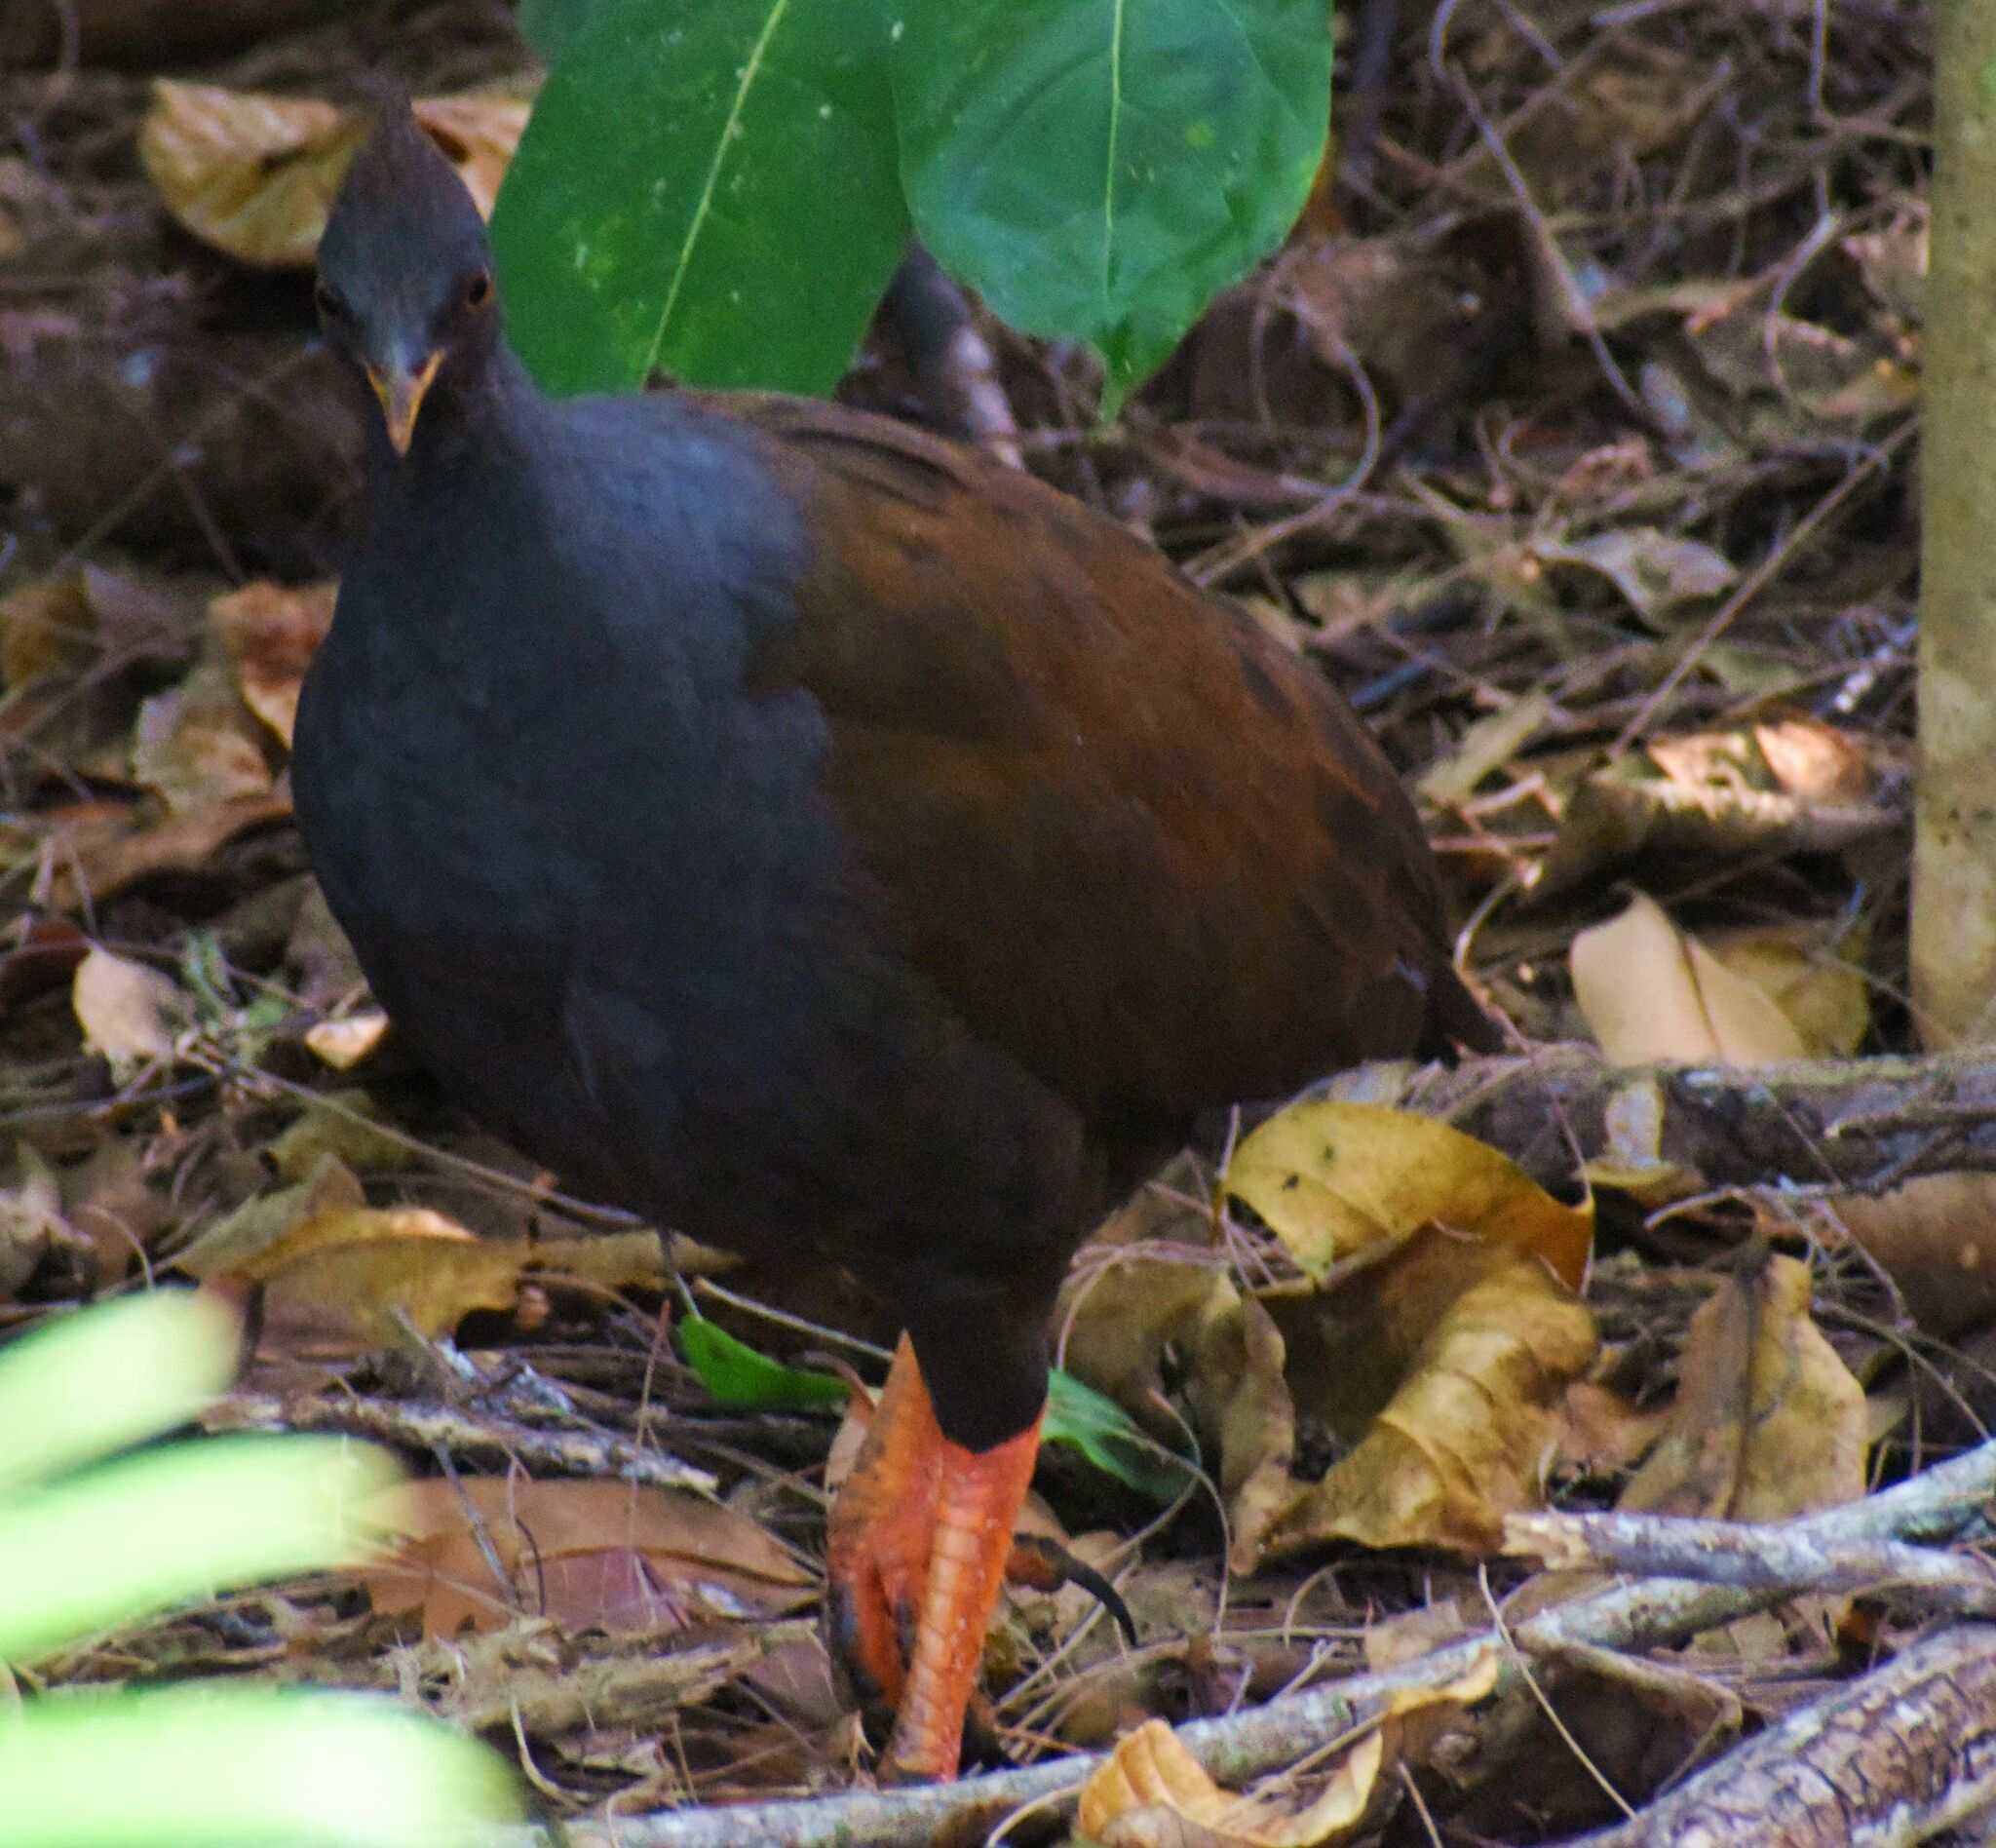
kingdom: Animalia
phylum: Chordata
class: Aves
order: Galliformes
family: Megapodiidae
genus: Megapodius
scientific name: Megapodius reinwardt
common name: Orange-footed scrubfowl
